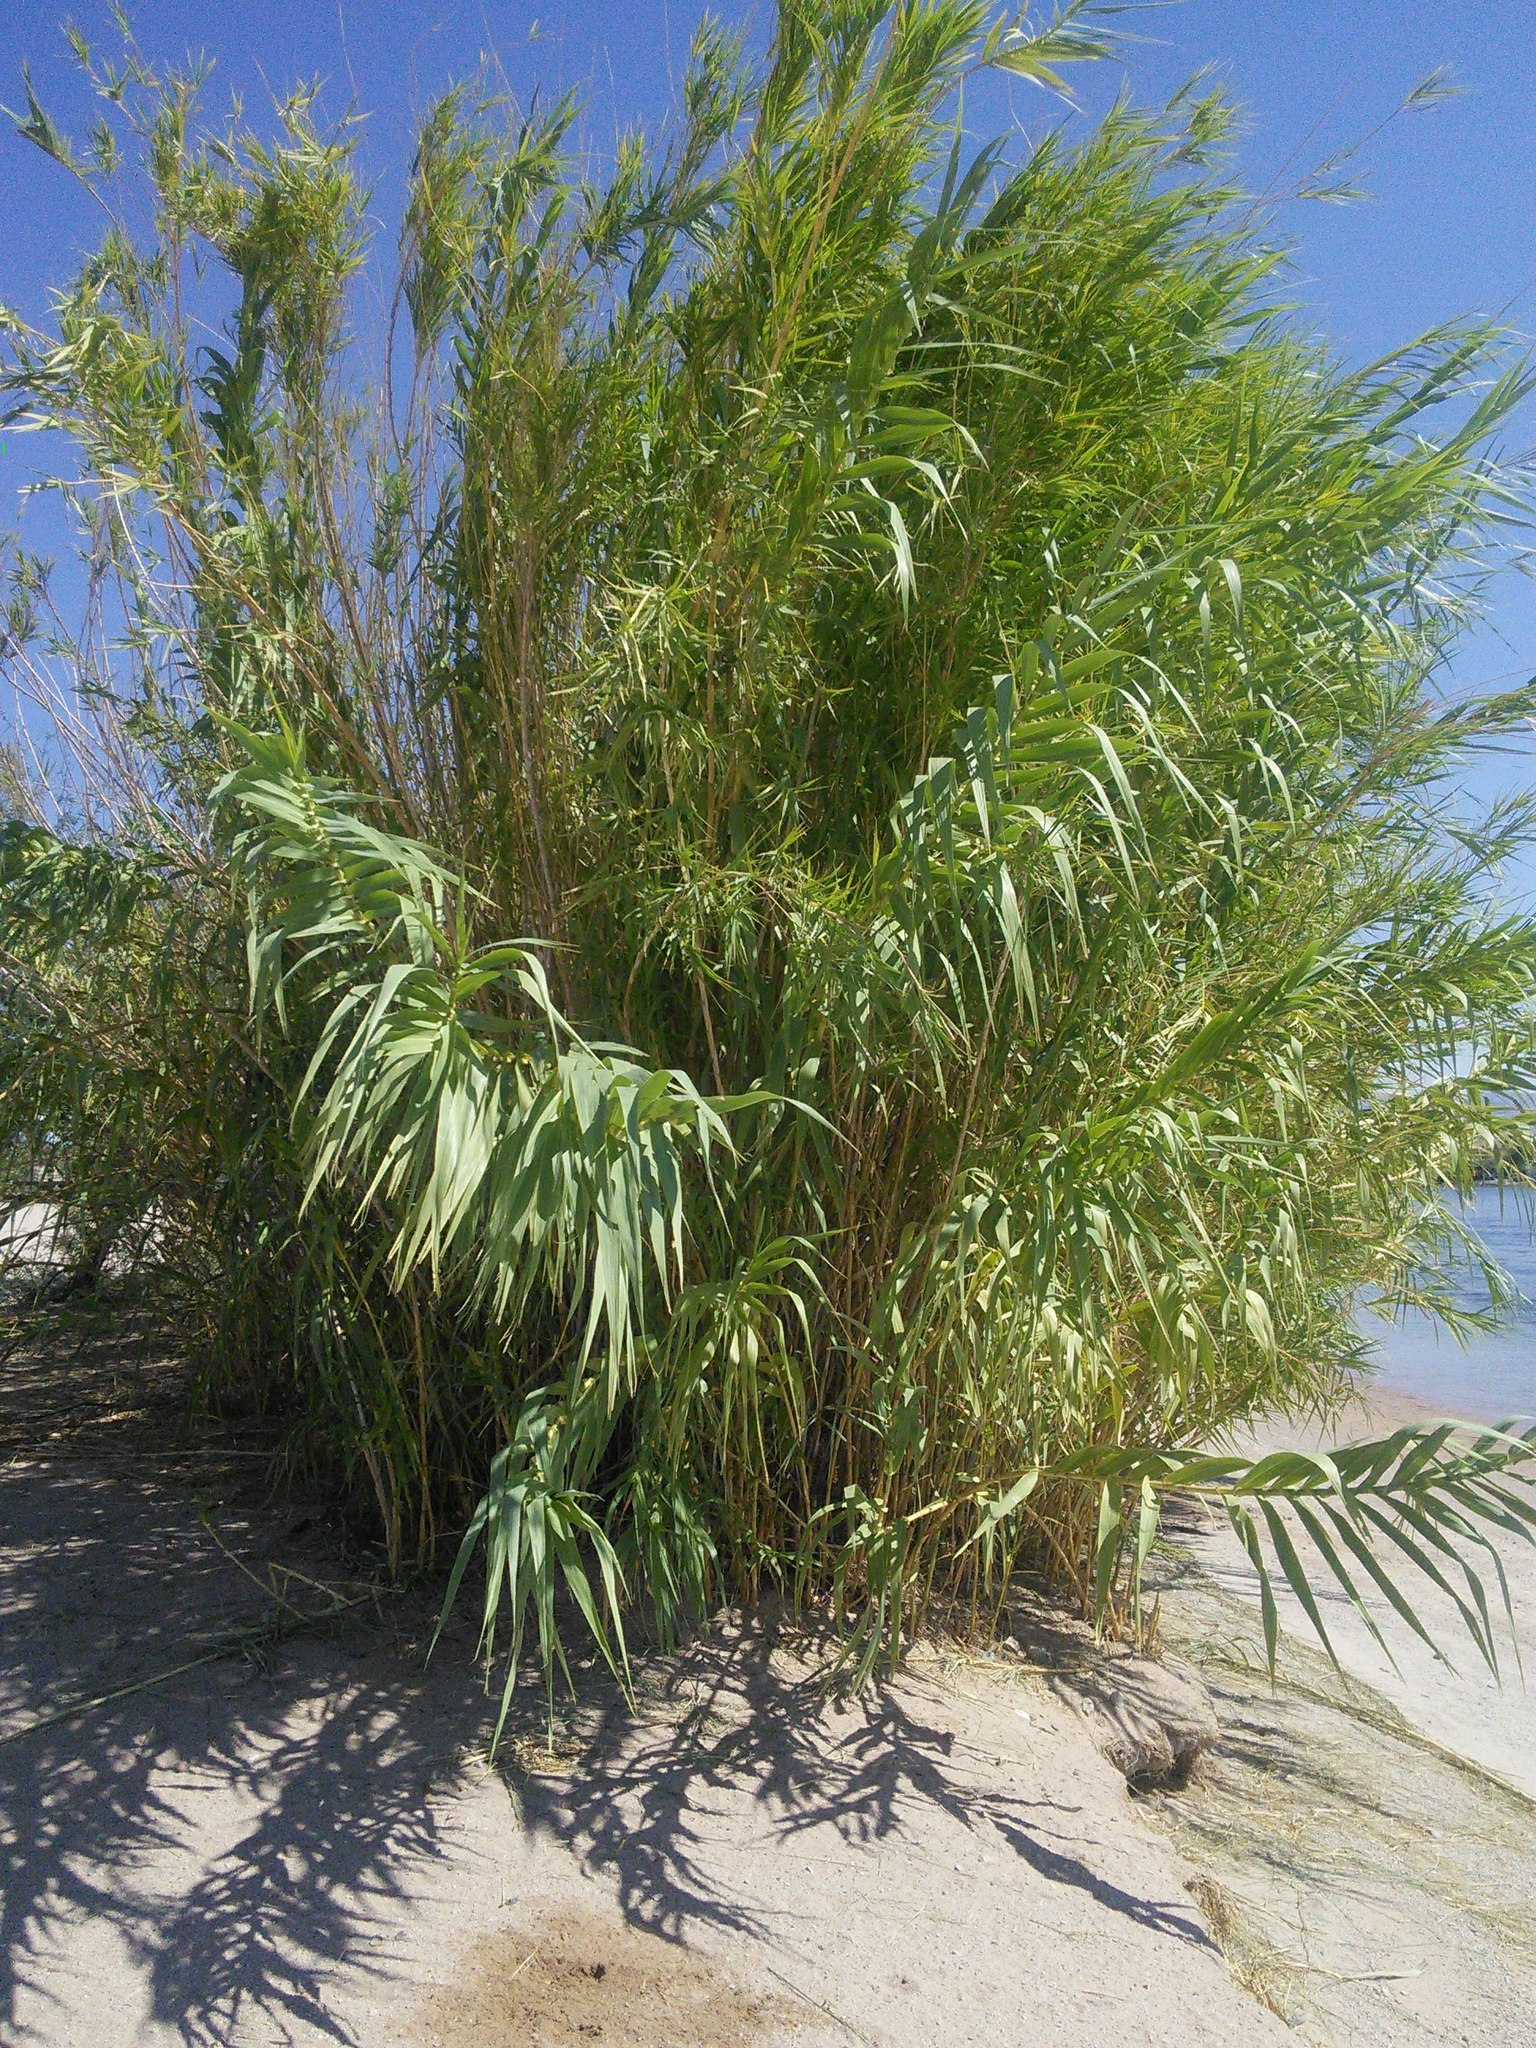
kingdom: Plantae
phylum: Tracheophyta
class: Liliopsida
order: Poales
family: Poaceae
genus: Arundo
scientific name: Arundo donax
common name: Giant reed
